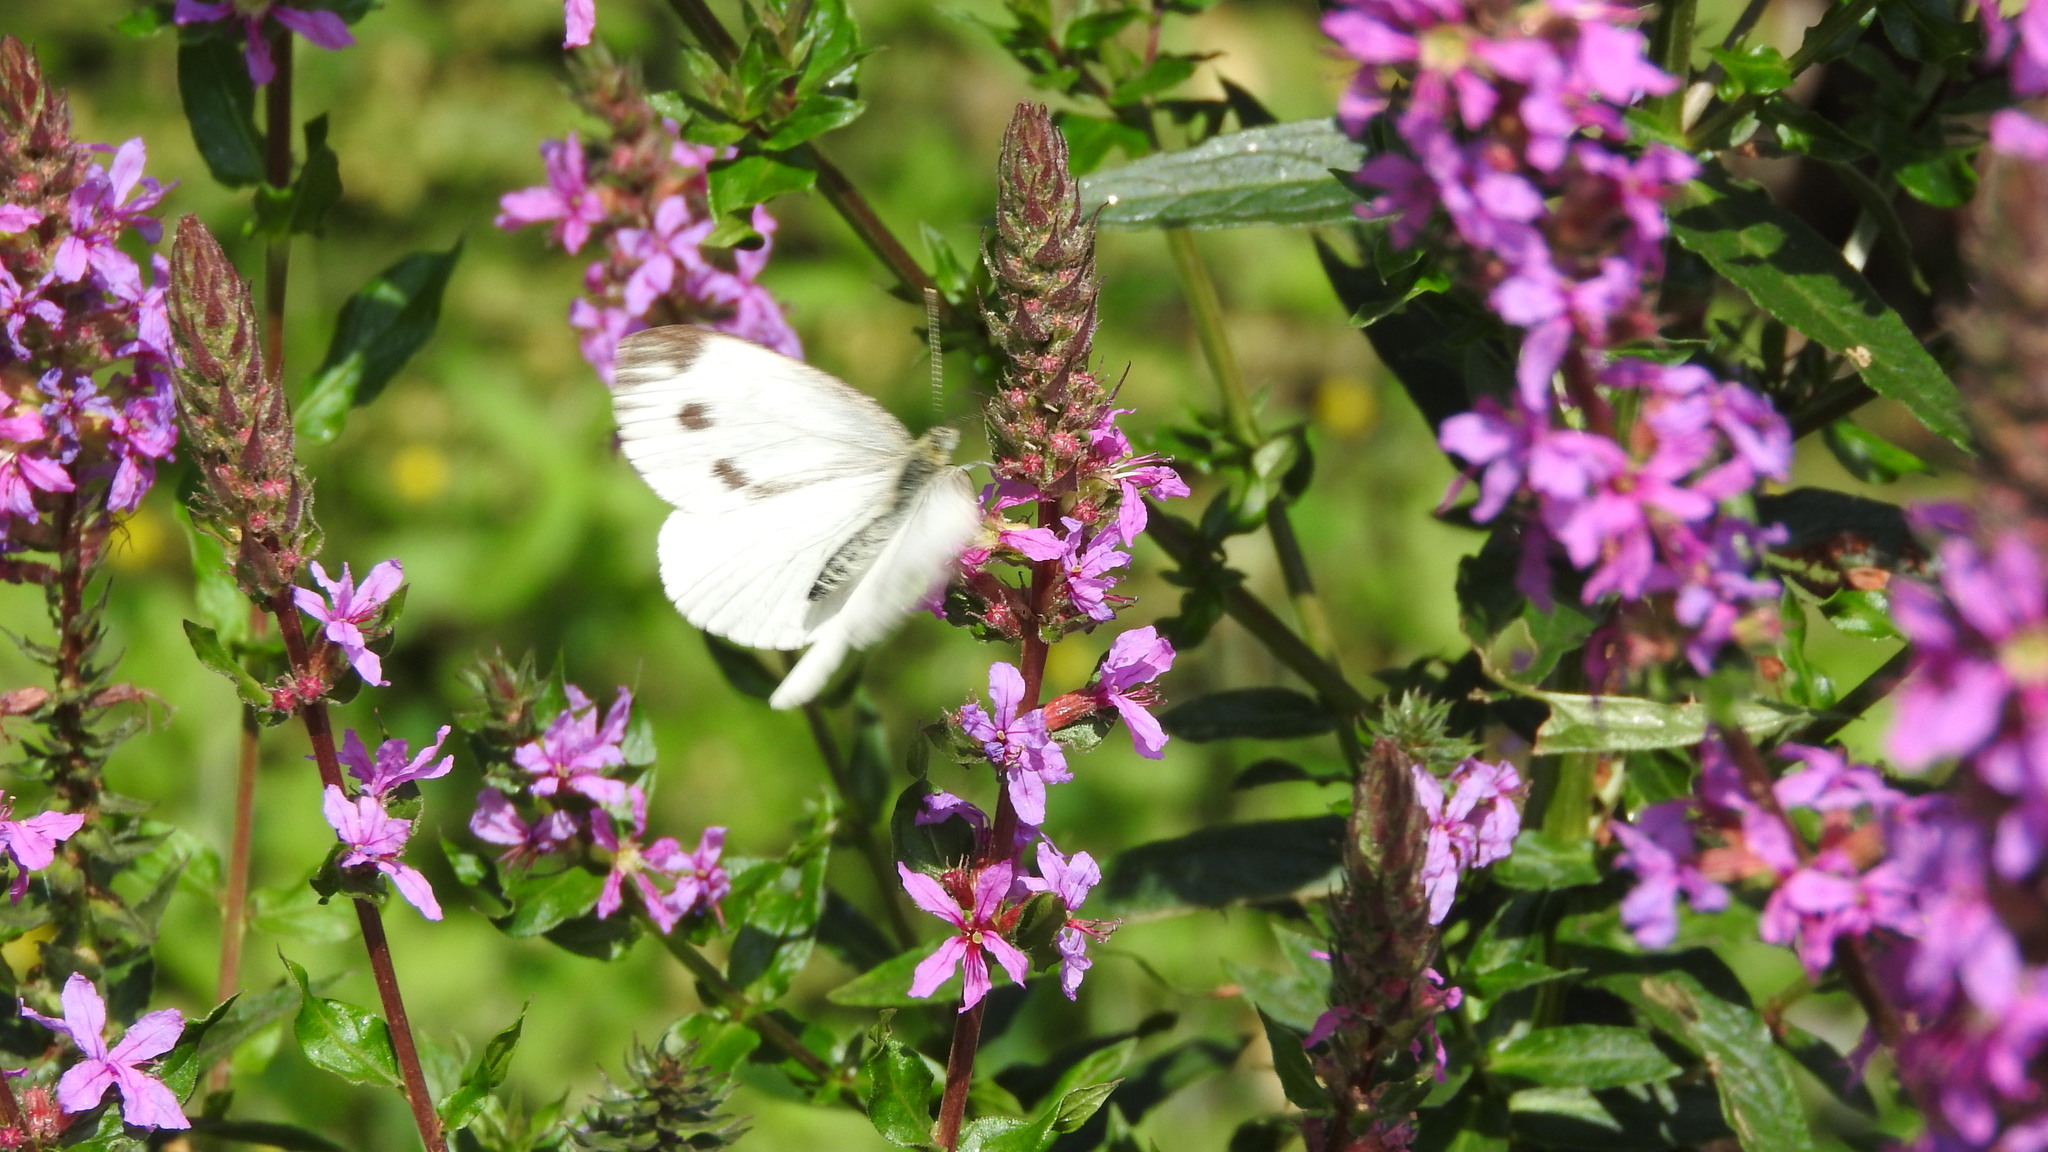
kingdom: Animalia
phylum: Arthropoda
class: Insecta
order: Lepidoptera
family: Pieridae
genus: Pieris
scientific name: Pieris napi
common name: Green-veined white
